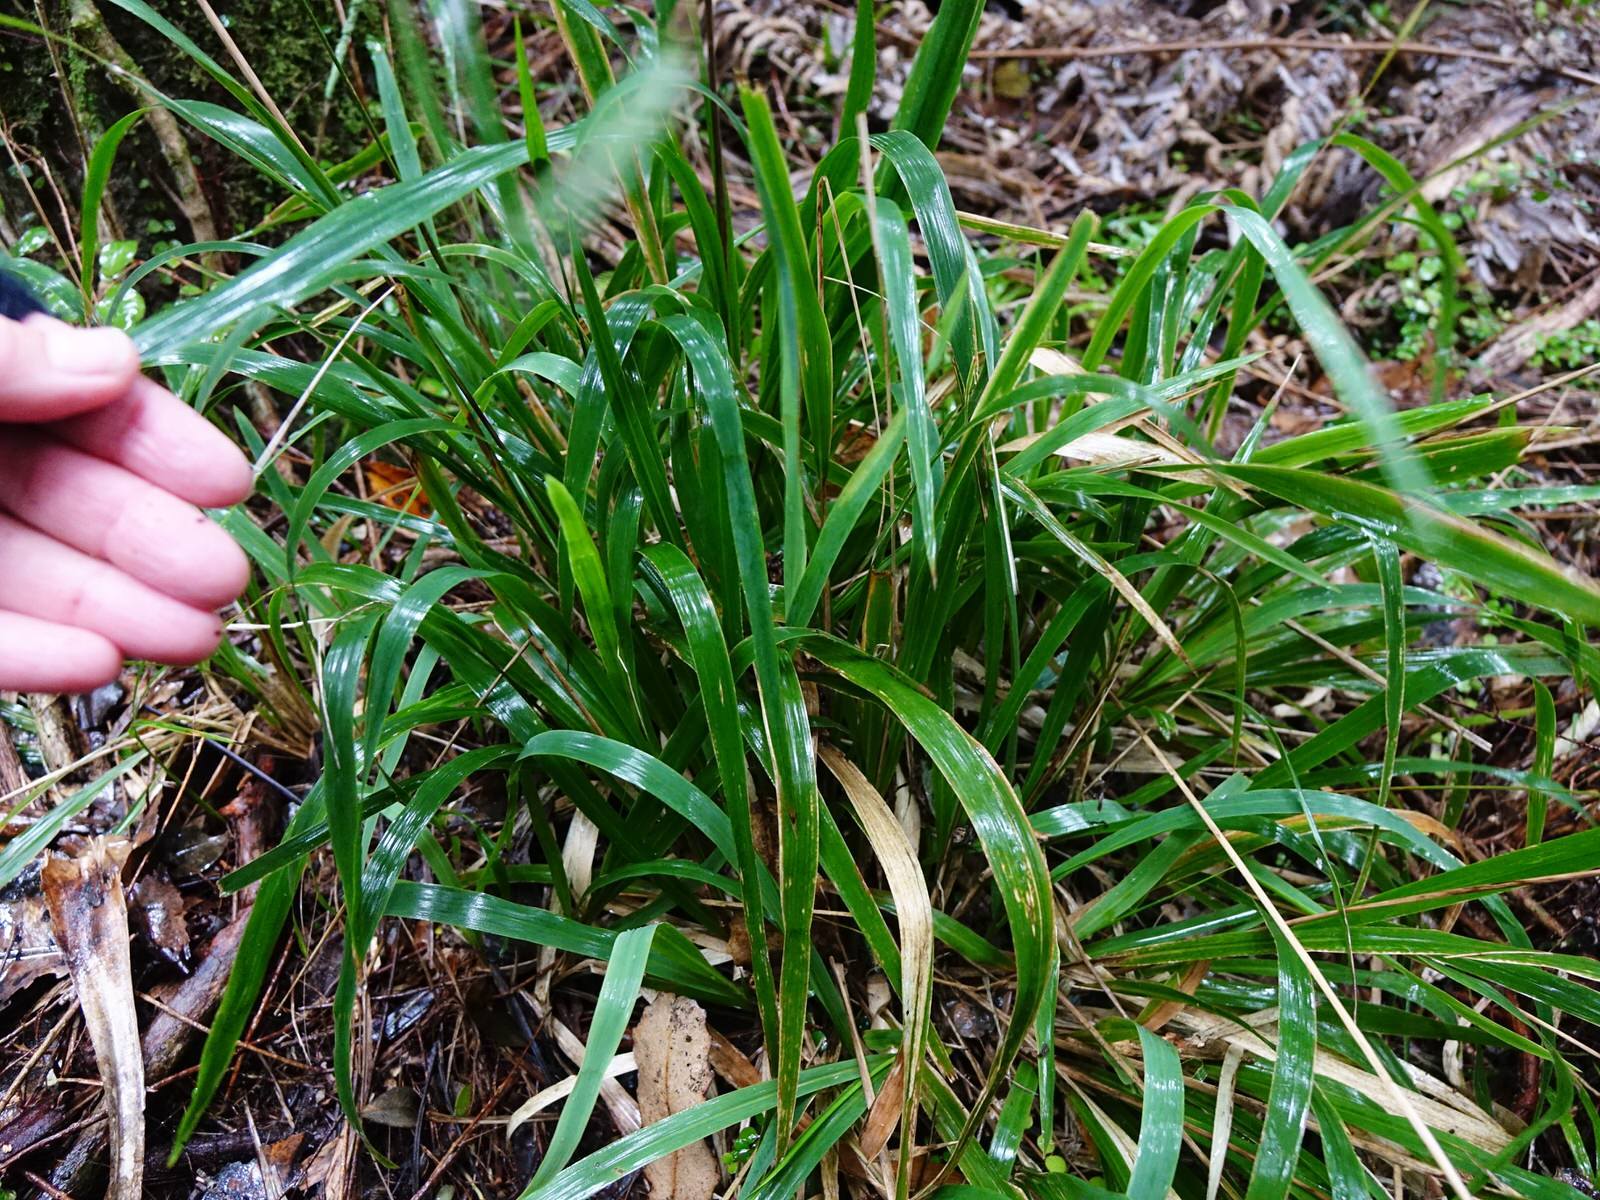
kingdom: Plantae
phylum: Tracheophyta
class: Liliopsida
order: Poales
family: Poaceae
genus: Ehrharta
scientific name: Ehrharta diplax
